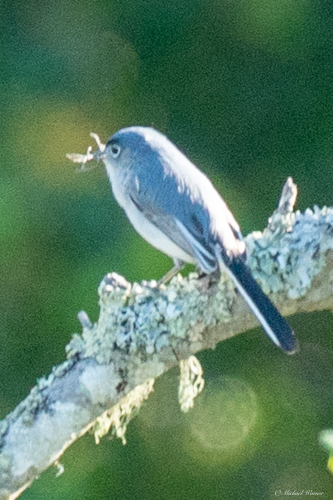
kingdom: Animalia
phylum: Chordata
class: Aves
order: Passeriformes
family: Polioptilidae
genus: Polioptila
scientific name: Polioptila caerulea
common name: Blue-gray gnatcatcher
